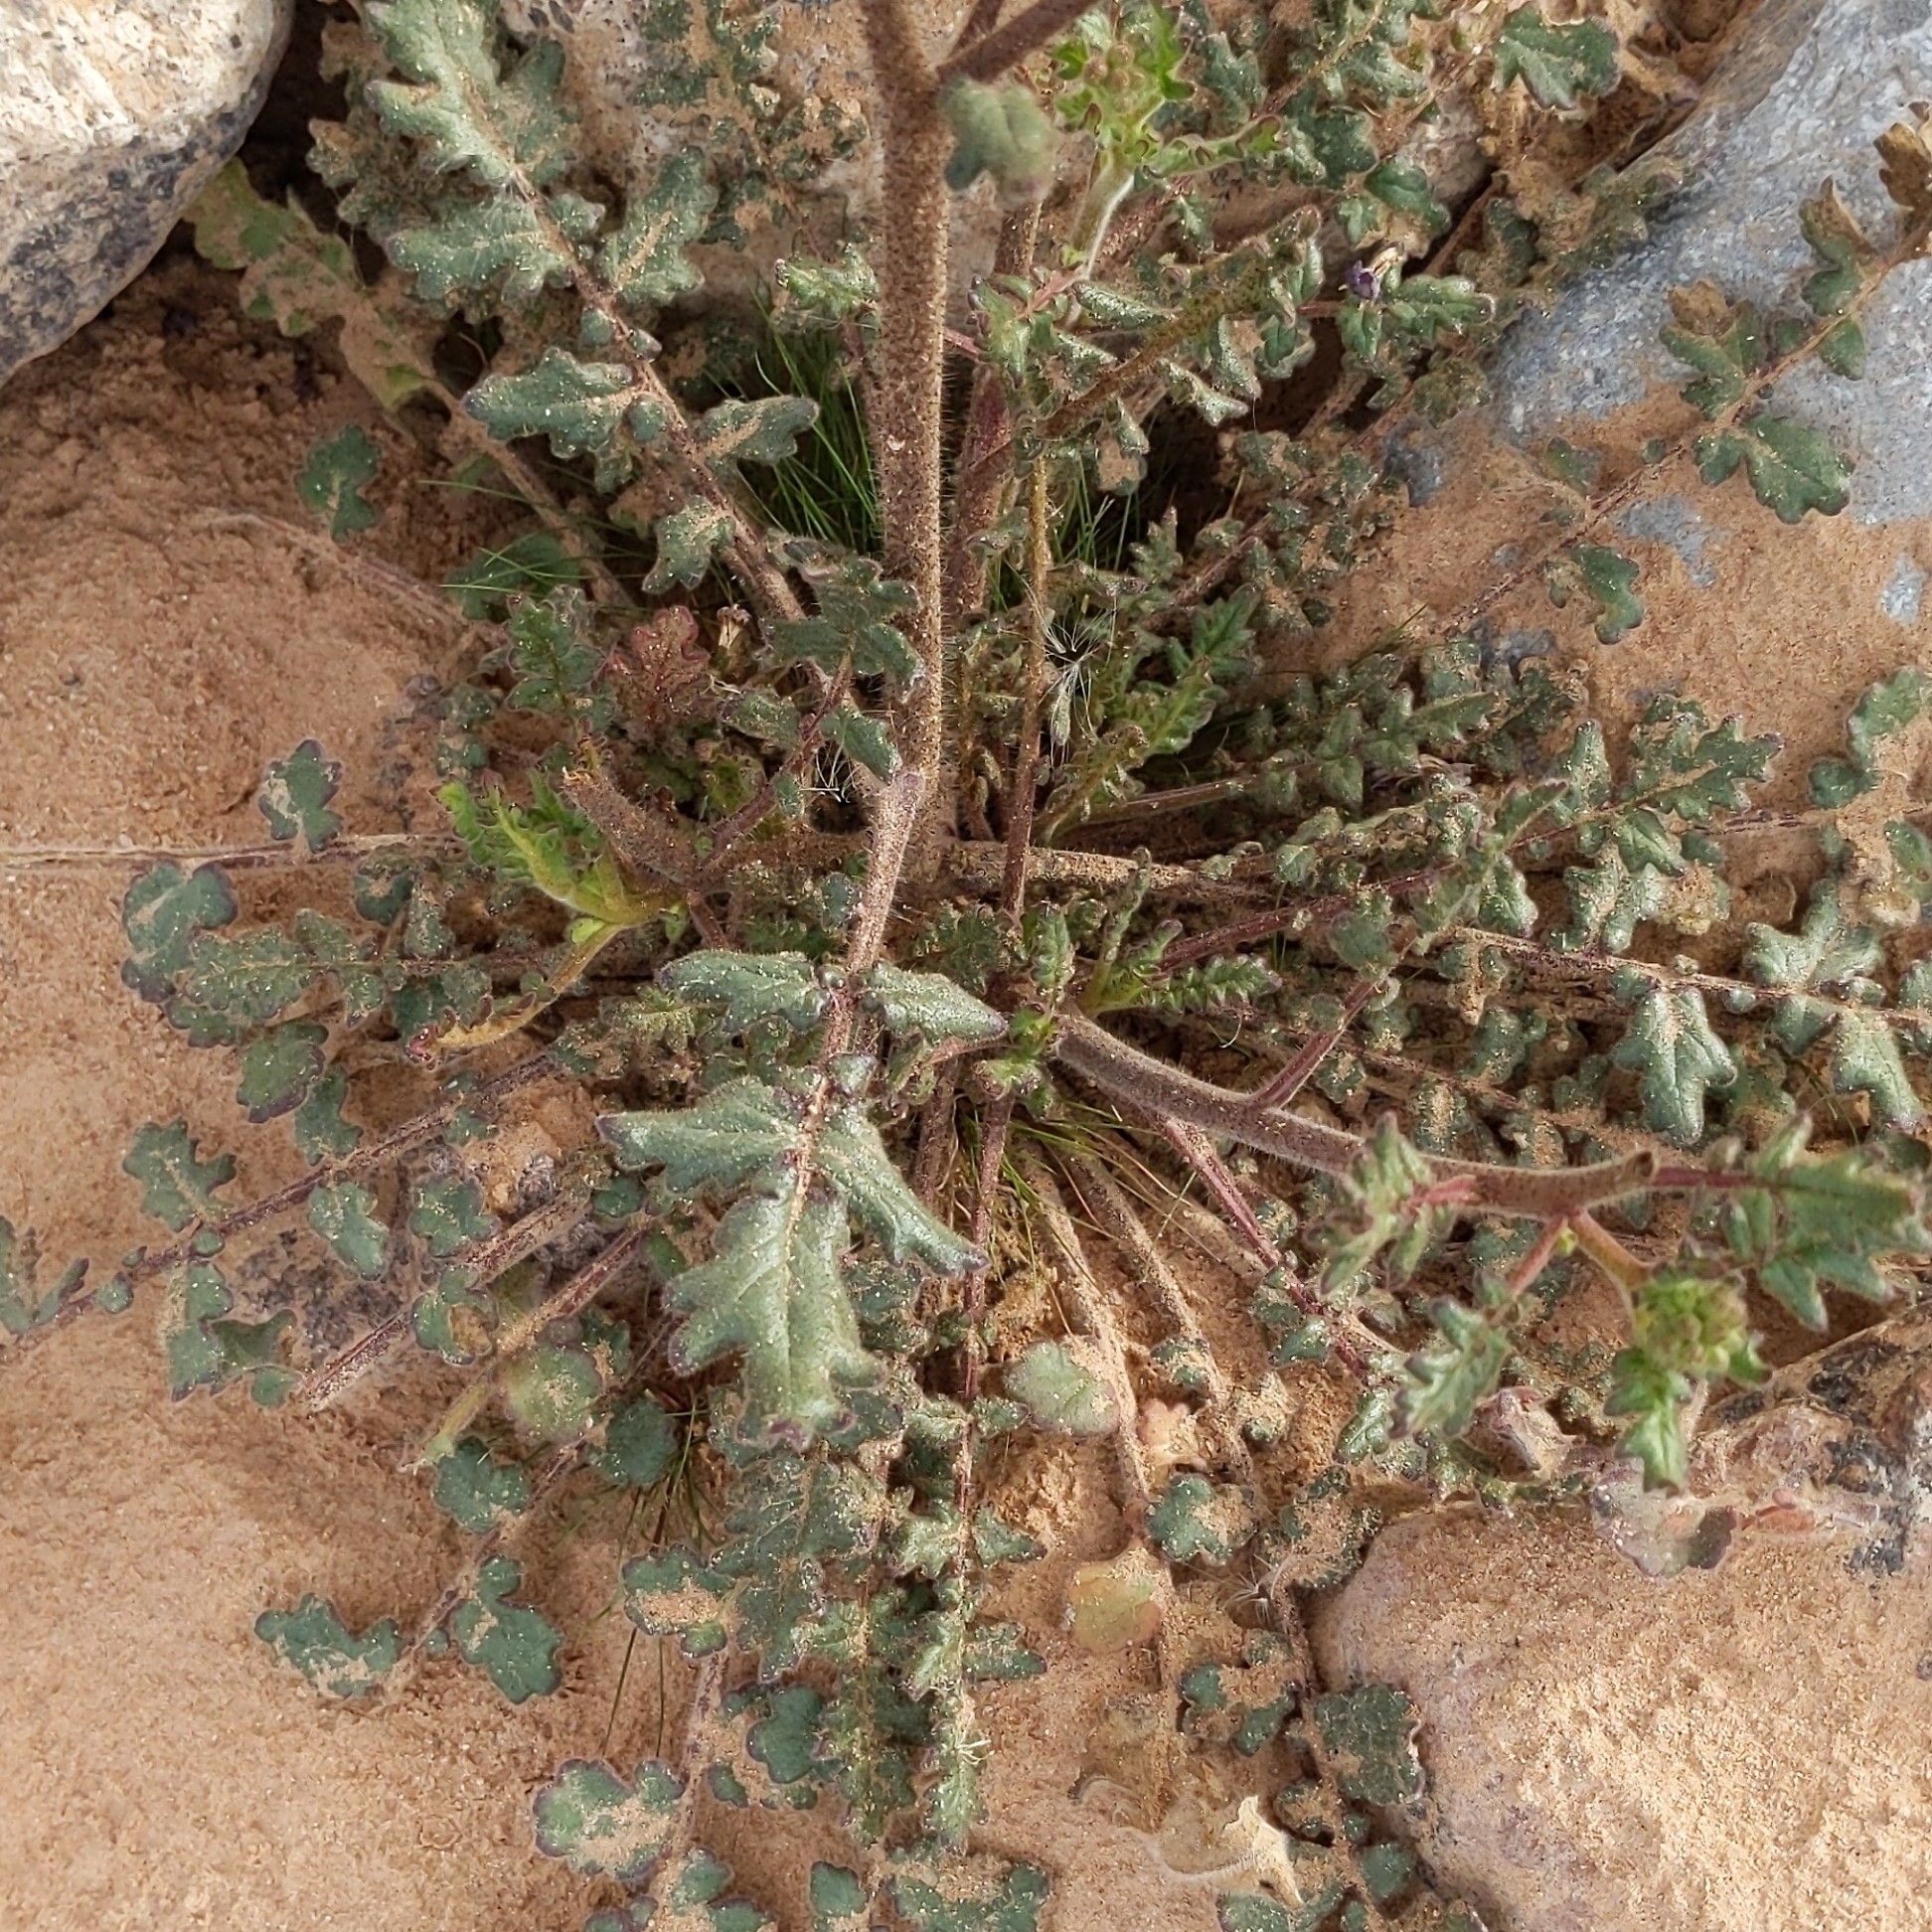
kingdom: Plantae
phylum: Tracheophyta
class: Magnoliopsida
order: Boraginales
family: Hydrophyllaceae
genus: Phacelia
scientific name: Phacelia crenulata
